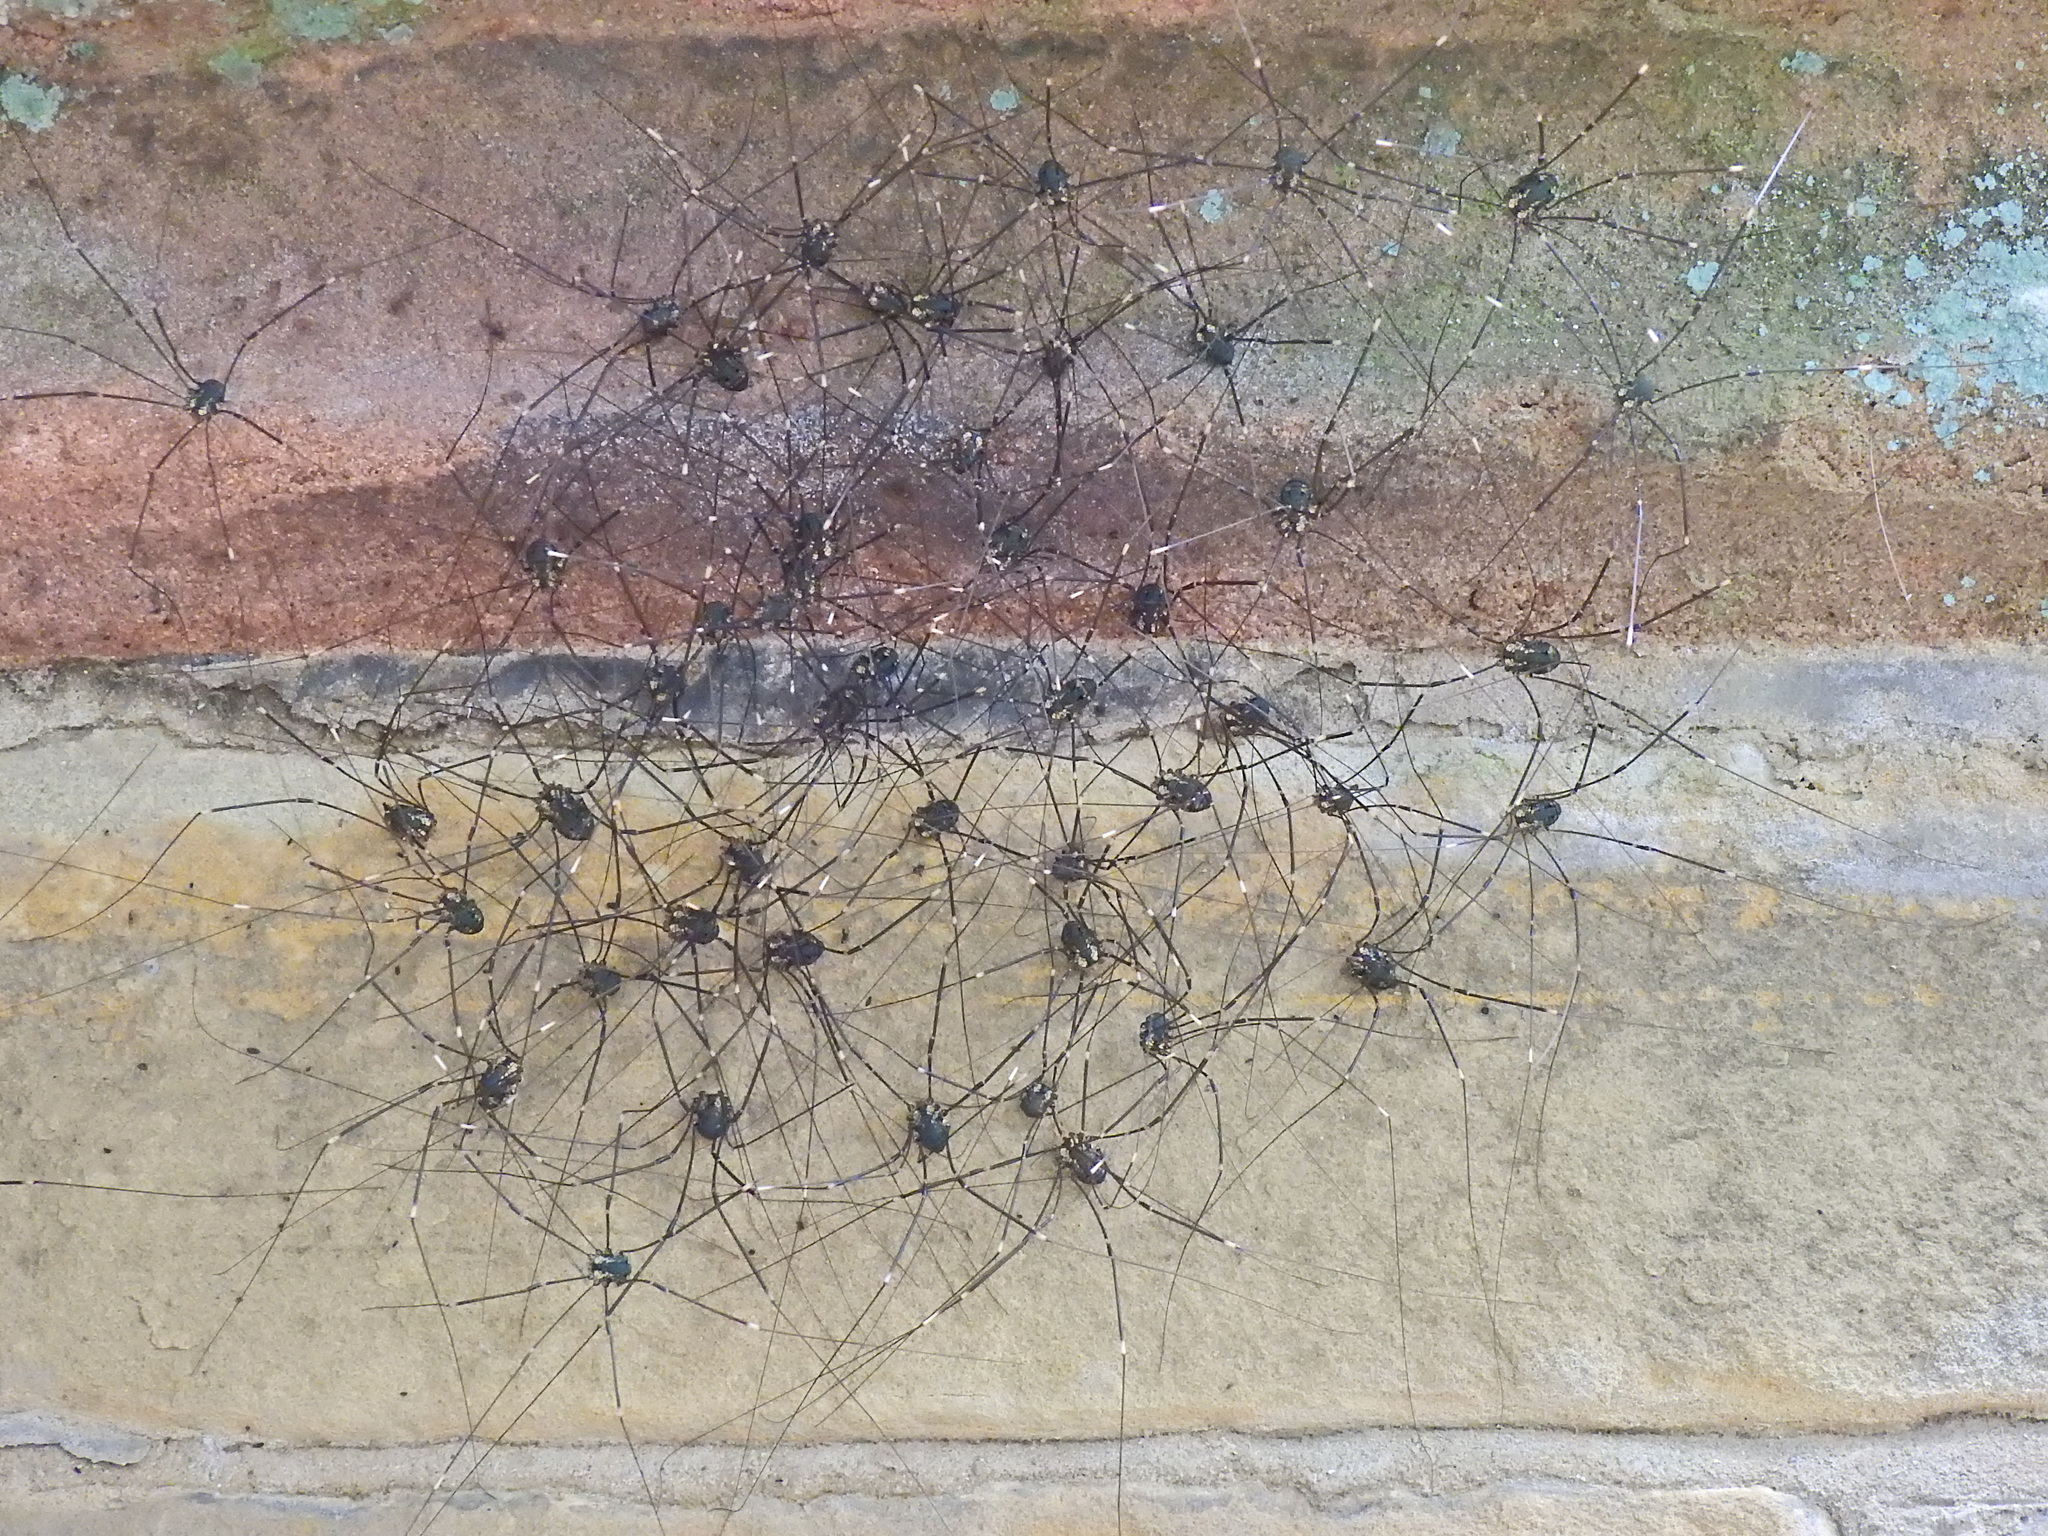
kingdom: Animalia
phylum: Arthropoda
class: Arachnida
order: Opiliones
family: Sclerosomatidae
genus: Leiobunum
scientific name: Leiobunum
